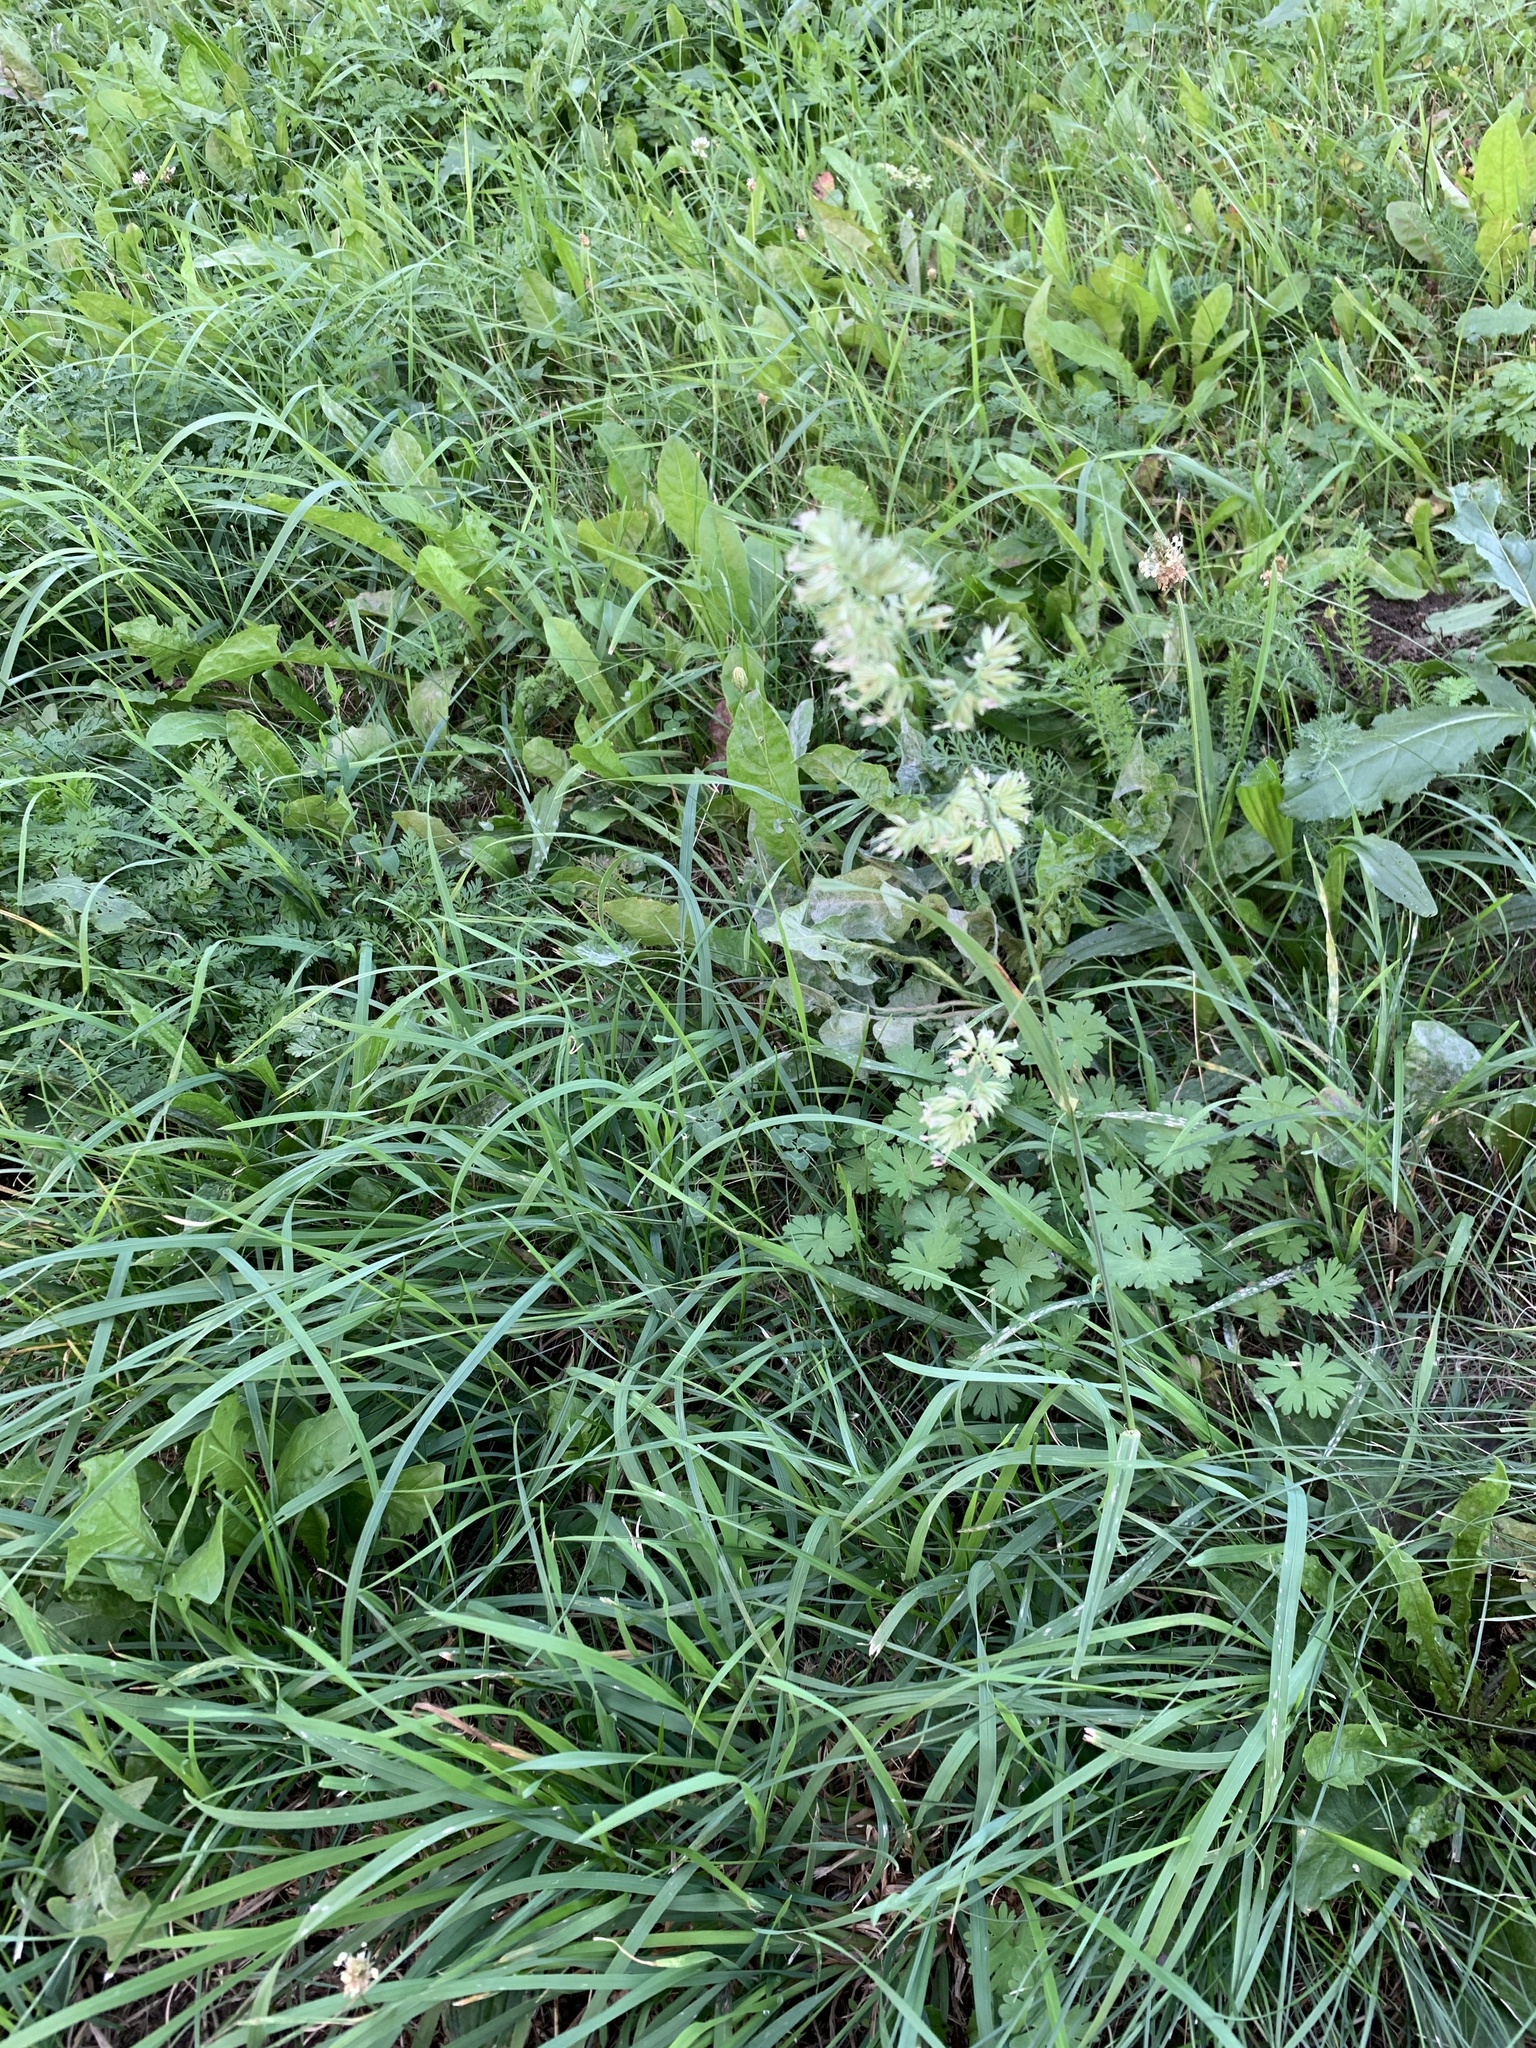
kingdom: Plantae
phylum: Tracheophyta
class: Liliopsida
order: Poales
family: Poaceae
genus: Dactylis
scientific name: Dactylis glomerata
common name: Orchardgrass
